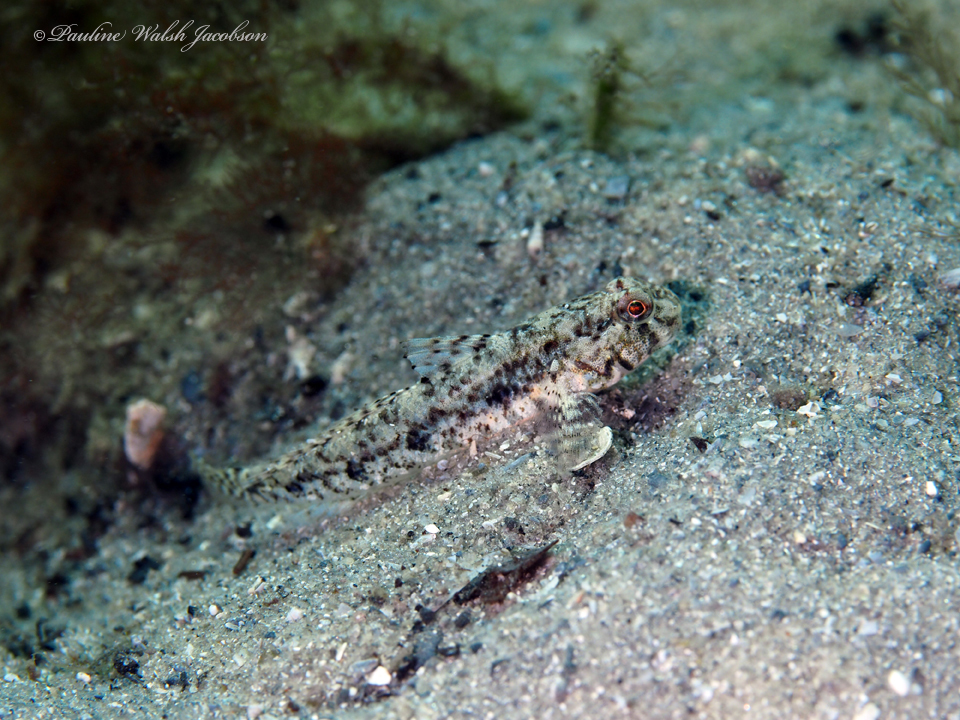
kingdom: Animalia
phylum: Chordata
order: Perciformes
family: Gobiidae
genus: Ctenogobius
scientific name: Ctenogobius stigmaturus
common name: Spottail goby
